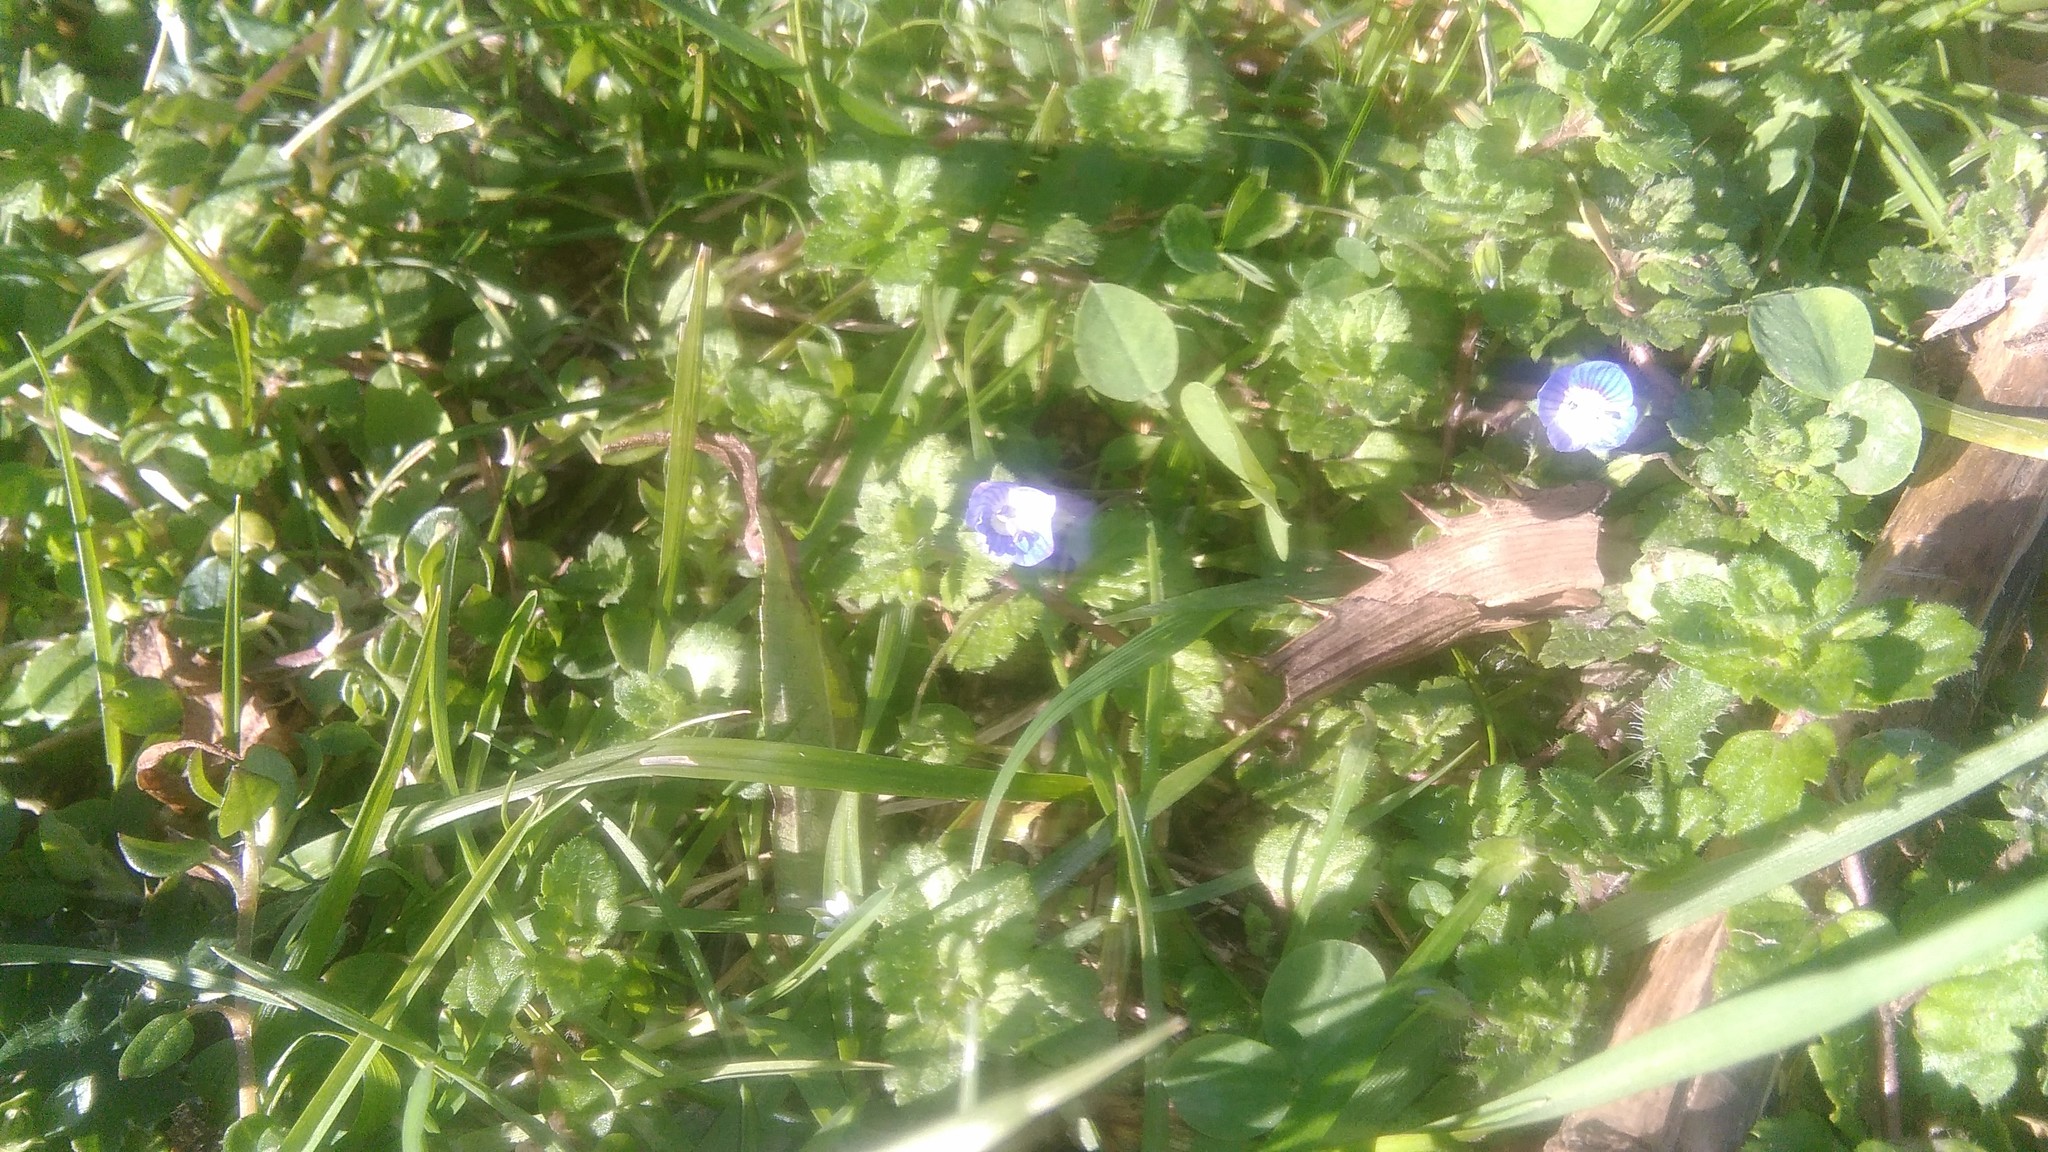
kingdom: Plantae
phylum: Tracheophyta
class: Magnoliopsida
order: Lamiales
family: Plantaginaceae
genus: Veronica
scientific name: Veronica persica
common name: Common field-speedwell
